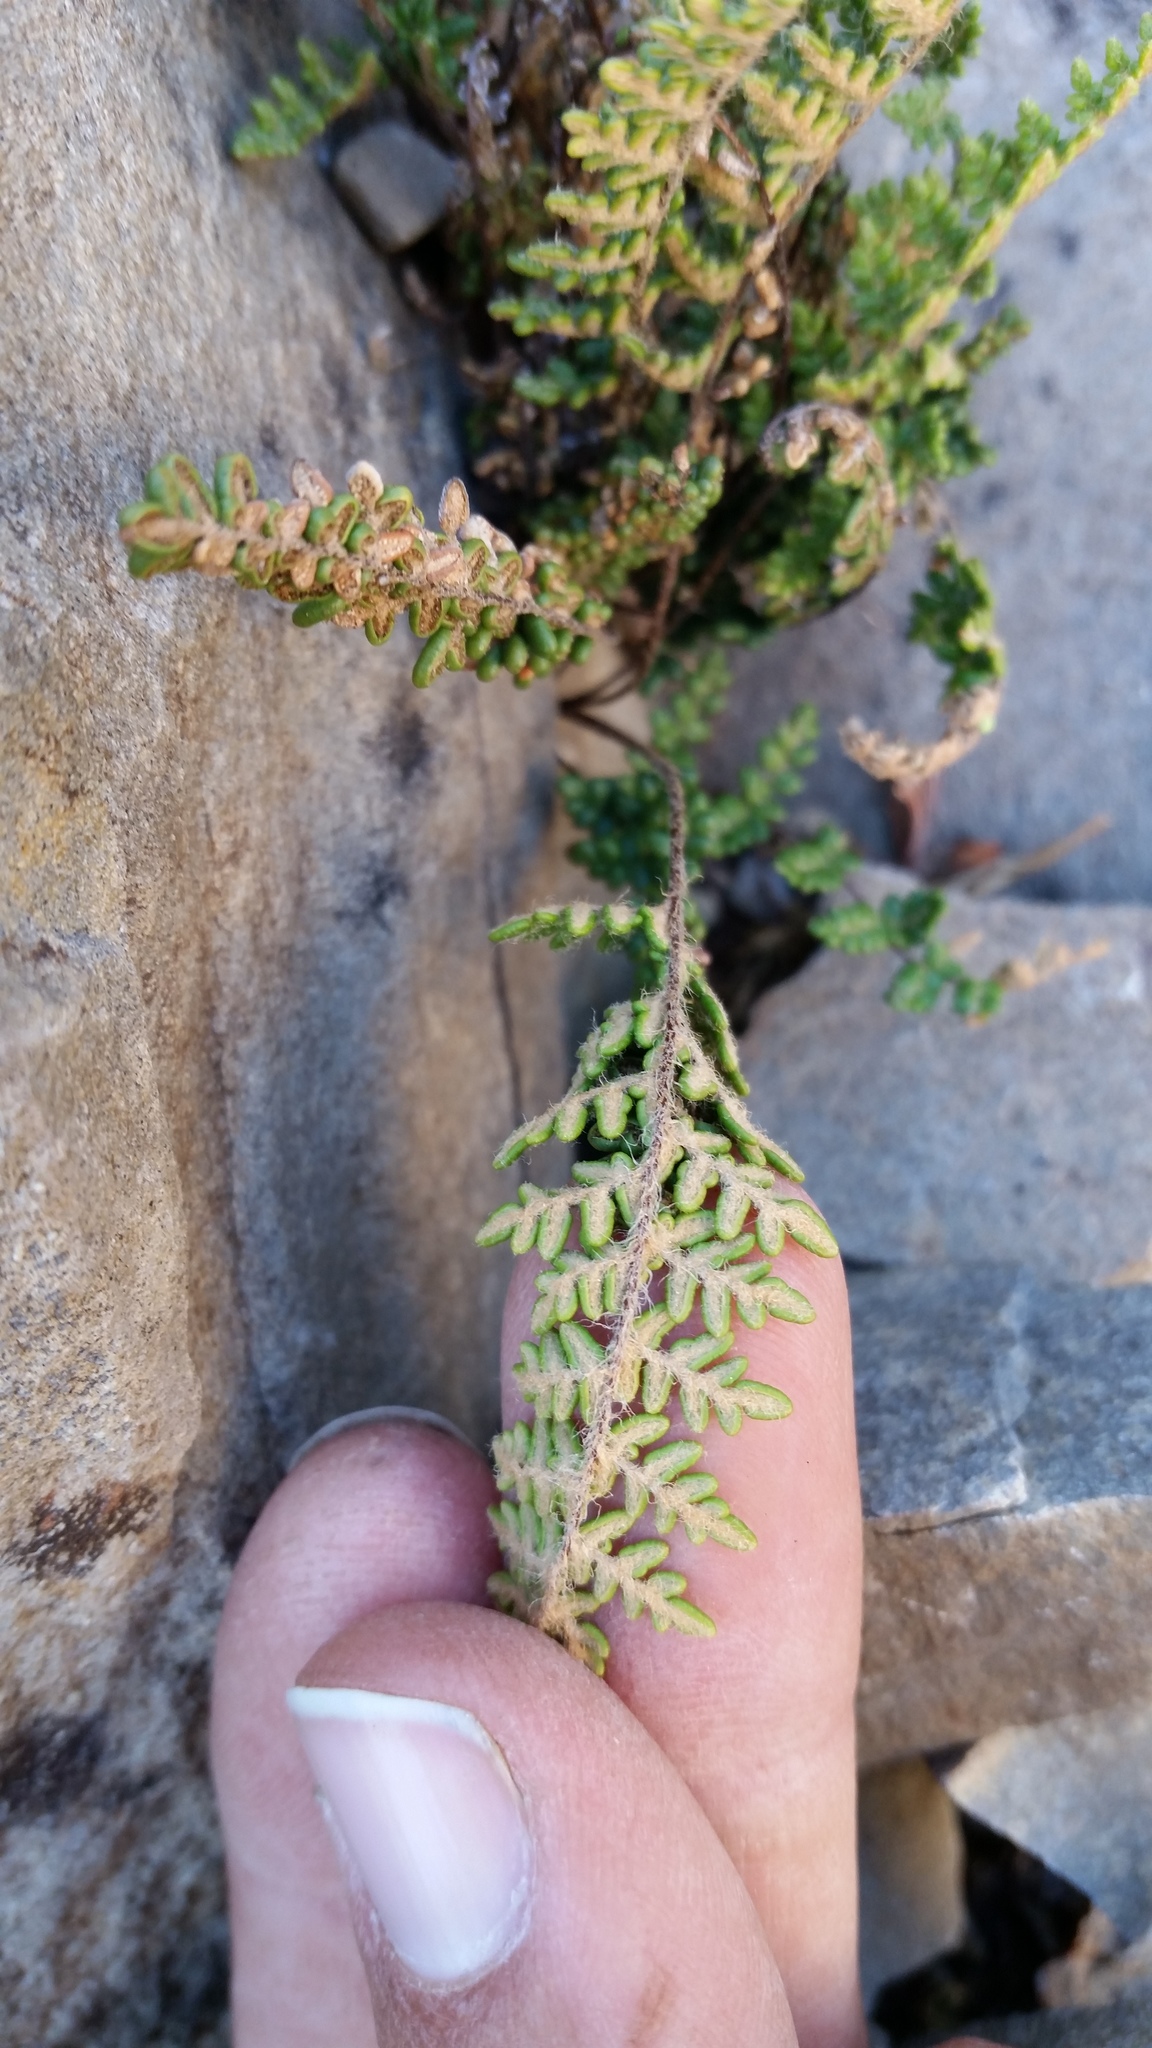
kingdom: Plantae
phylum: Tracheophyta
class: Polypodiopsida
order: Polypodiales
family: Pteridaceae
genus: Myriopteris
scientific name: Myriopteris gracillima
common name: Lace fern
